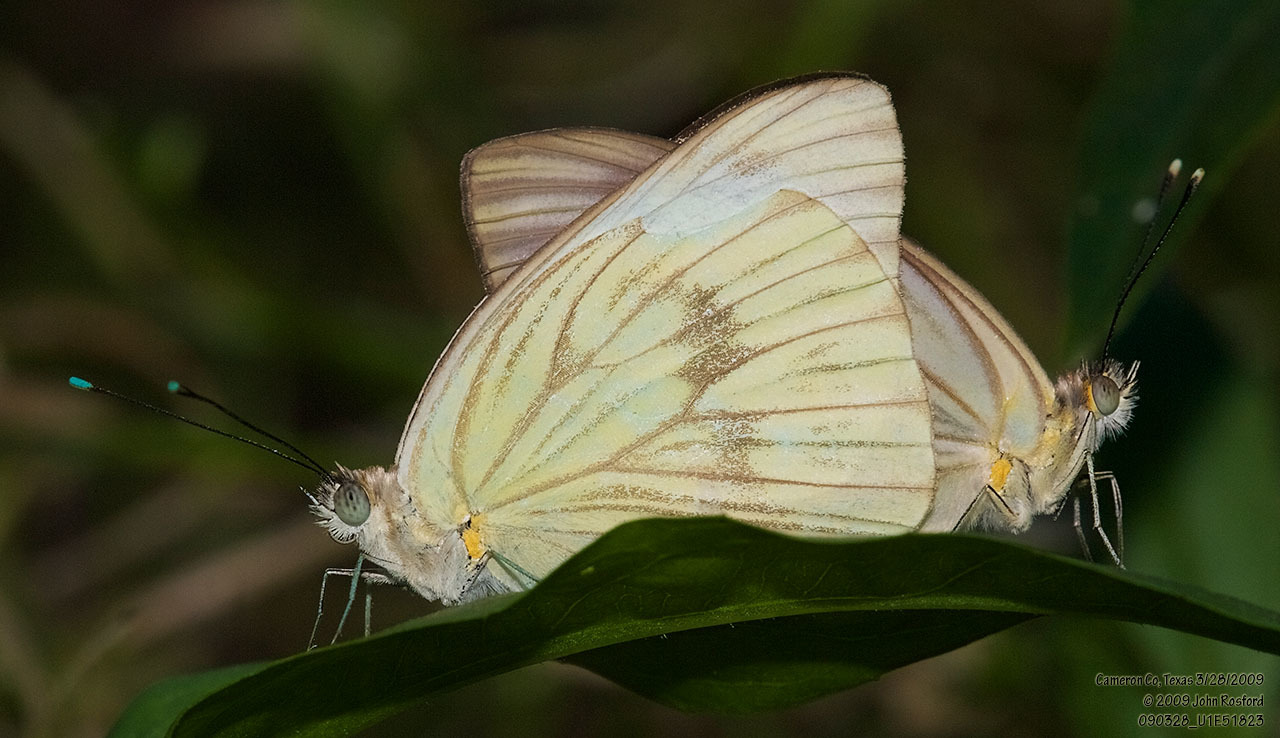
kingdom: Animalia
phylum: Arthropoda
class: Insecta
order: Lepidoptera
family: Pieridae
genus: Ascia
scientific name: Ascia monuste
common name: Great southern white
